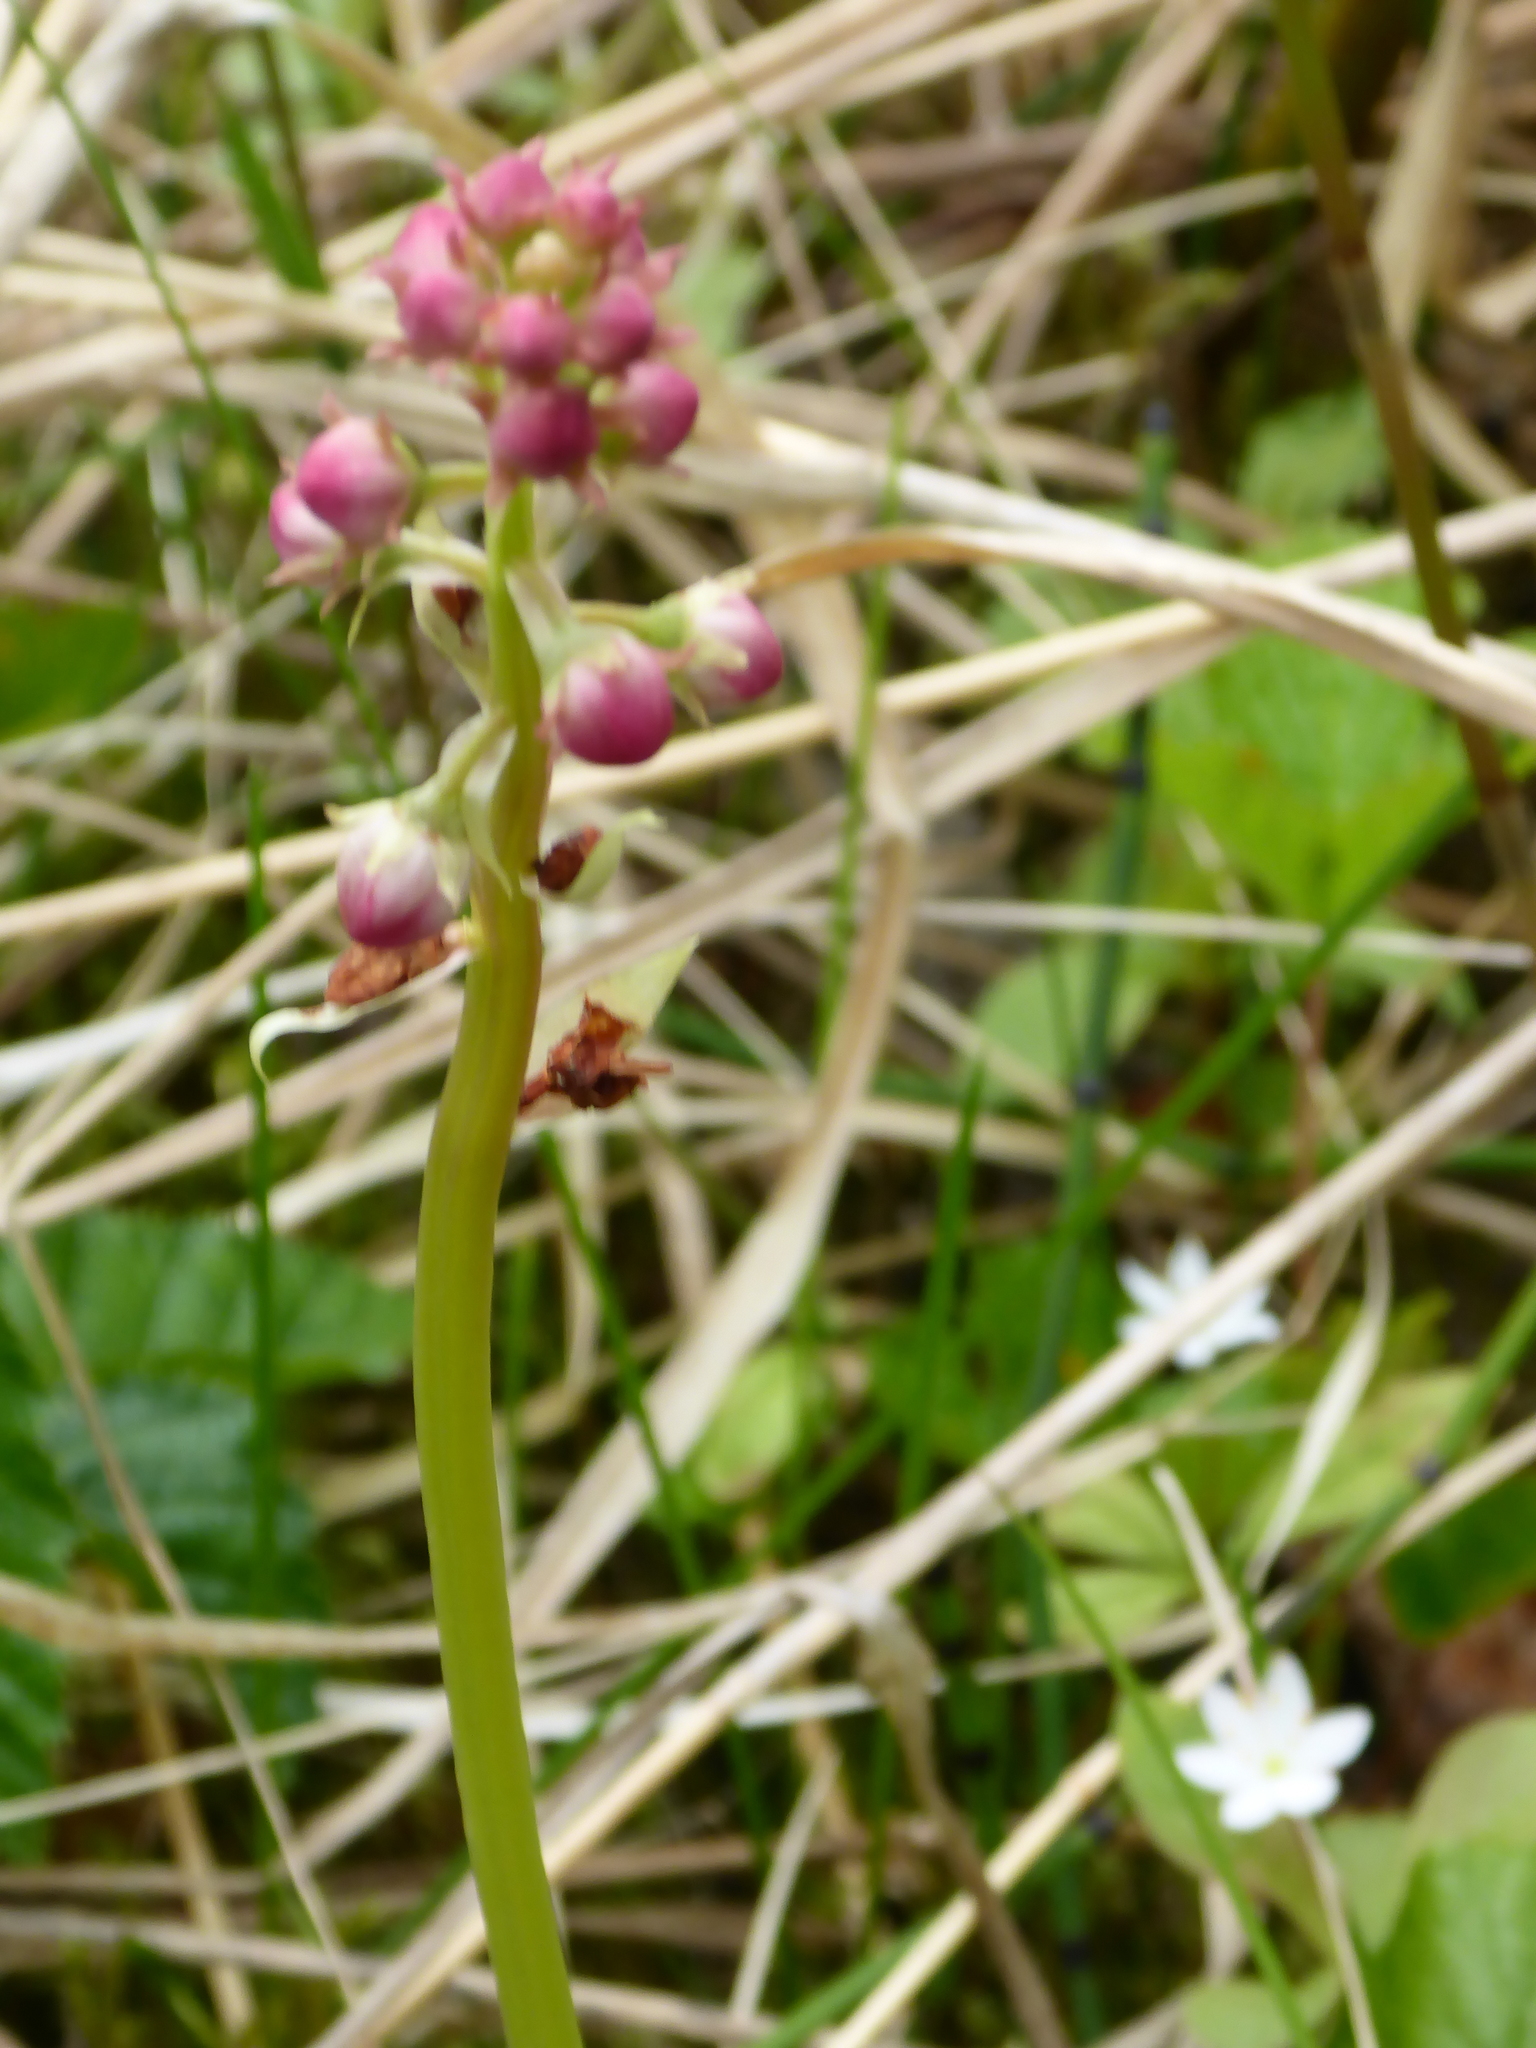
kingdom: Plantae
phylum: Tracheophyta
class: Magnoliopsida
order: Ericales
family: Ericaceae
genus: Pyrola
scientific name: Pyrola asarifolia
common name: Bog wintergreen
